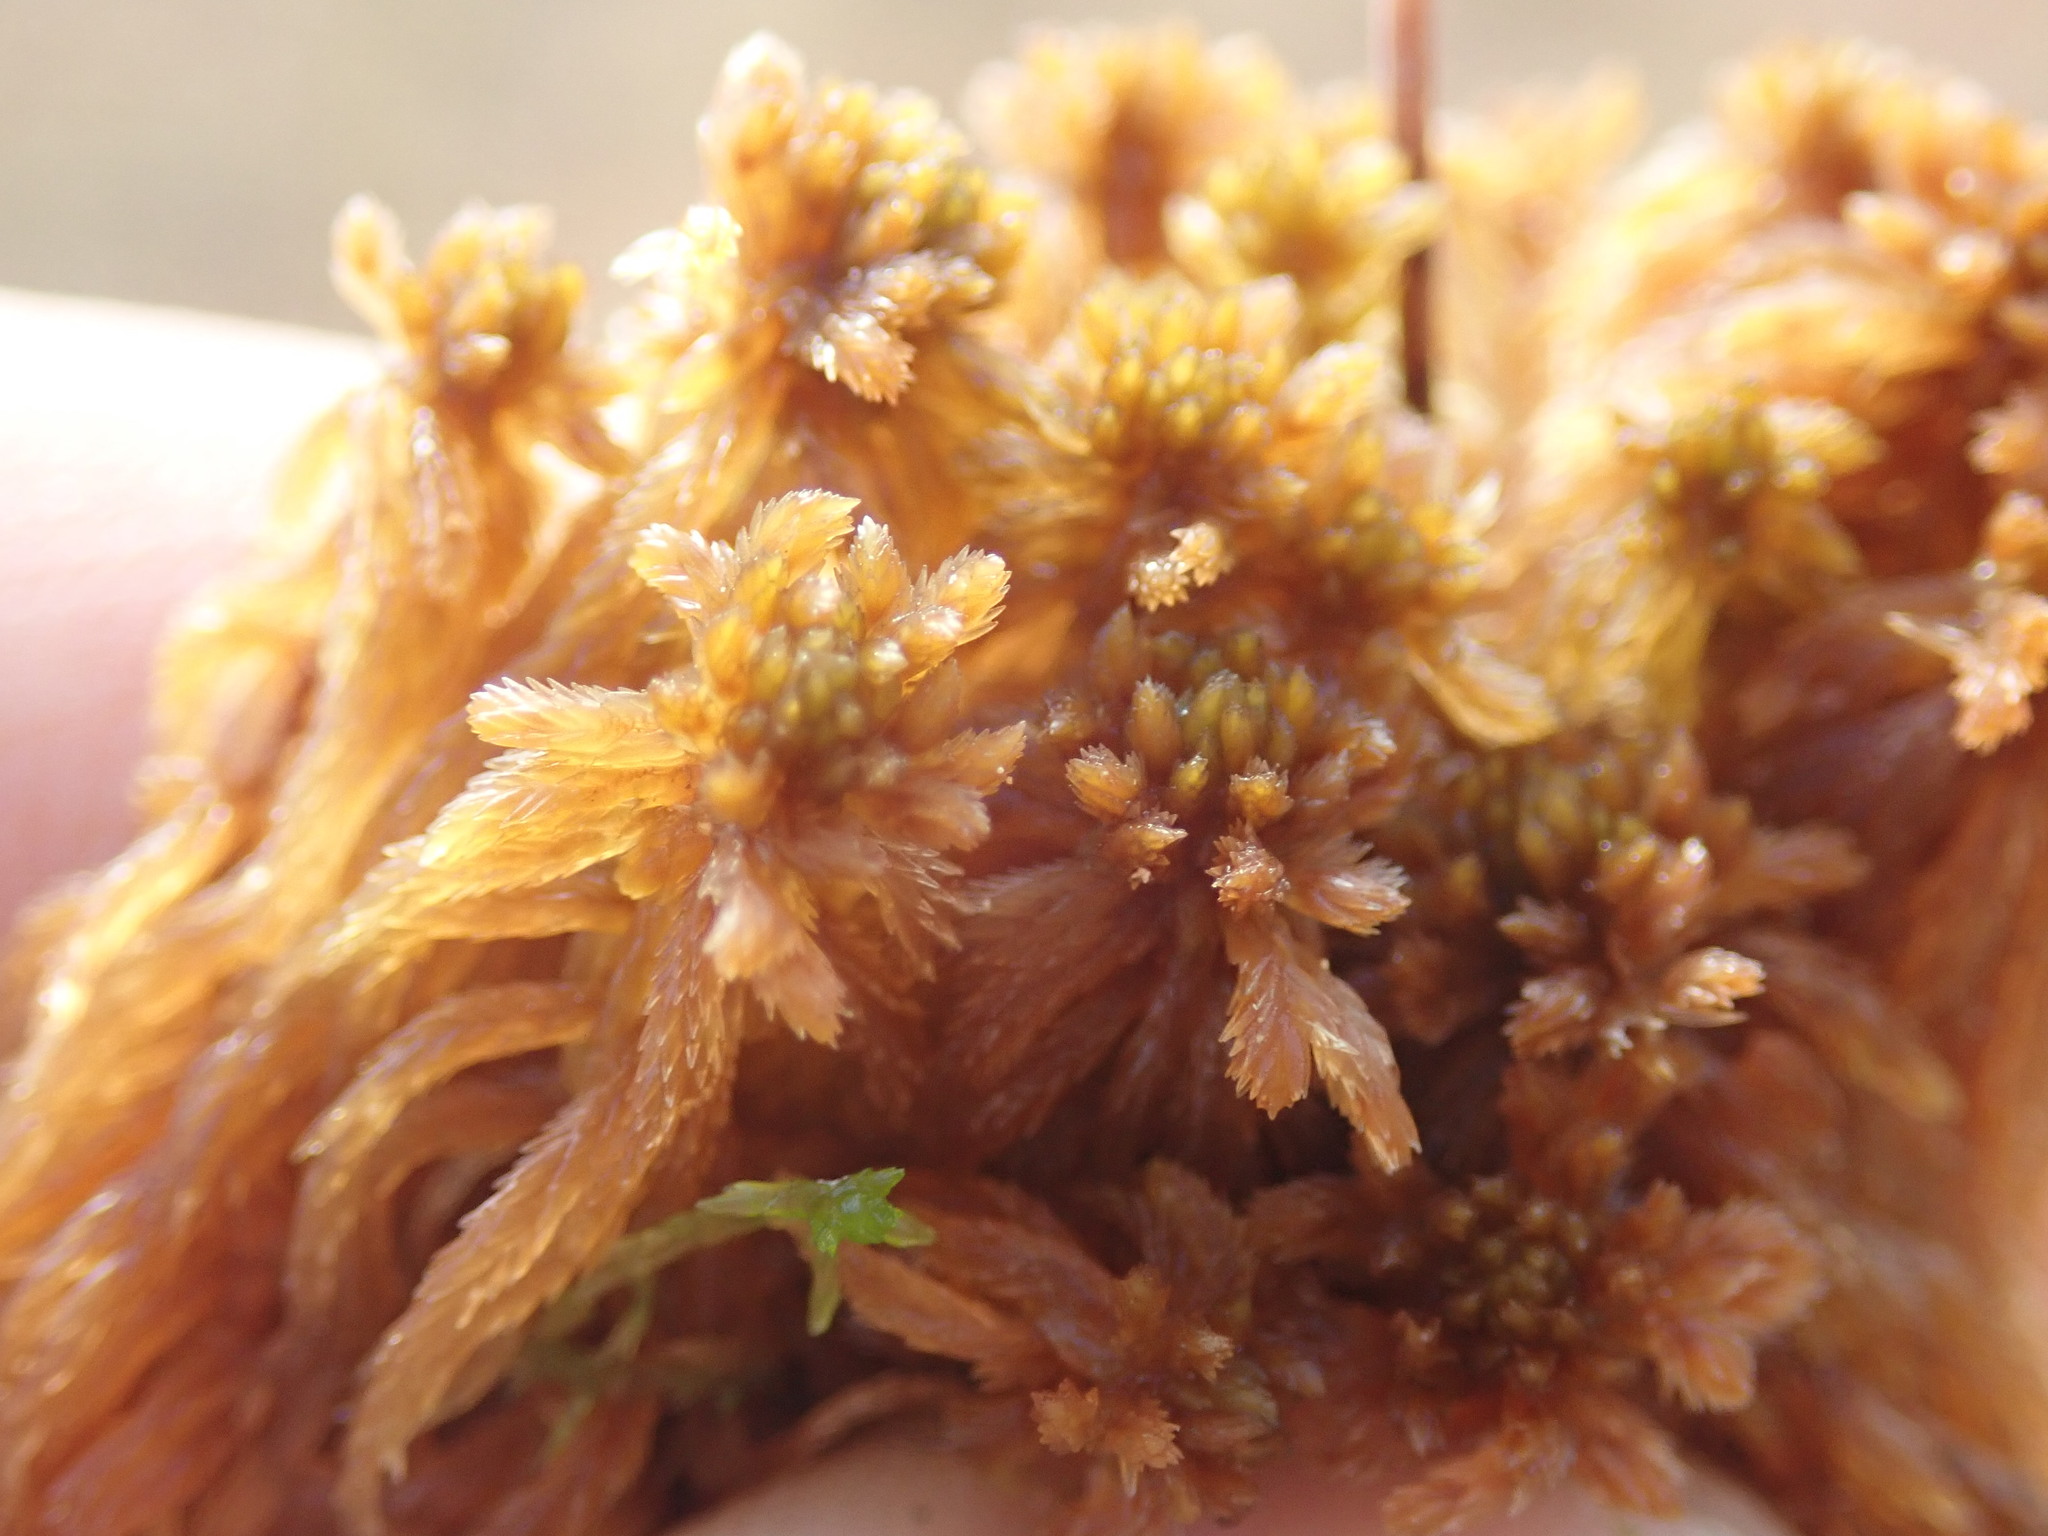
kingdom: Plantae
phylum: Bryophyta
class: Sphagnopsida
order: Sphagnales
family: Sphagnaceae
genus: Sphagnum
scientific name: Sphagnum fuscum
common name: Brown peat moss
